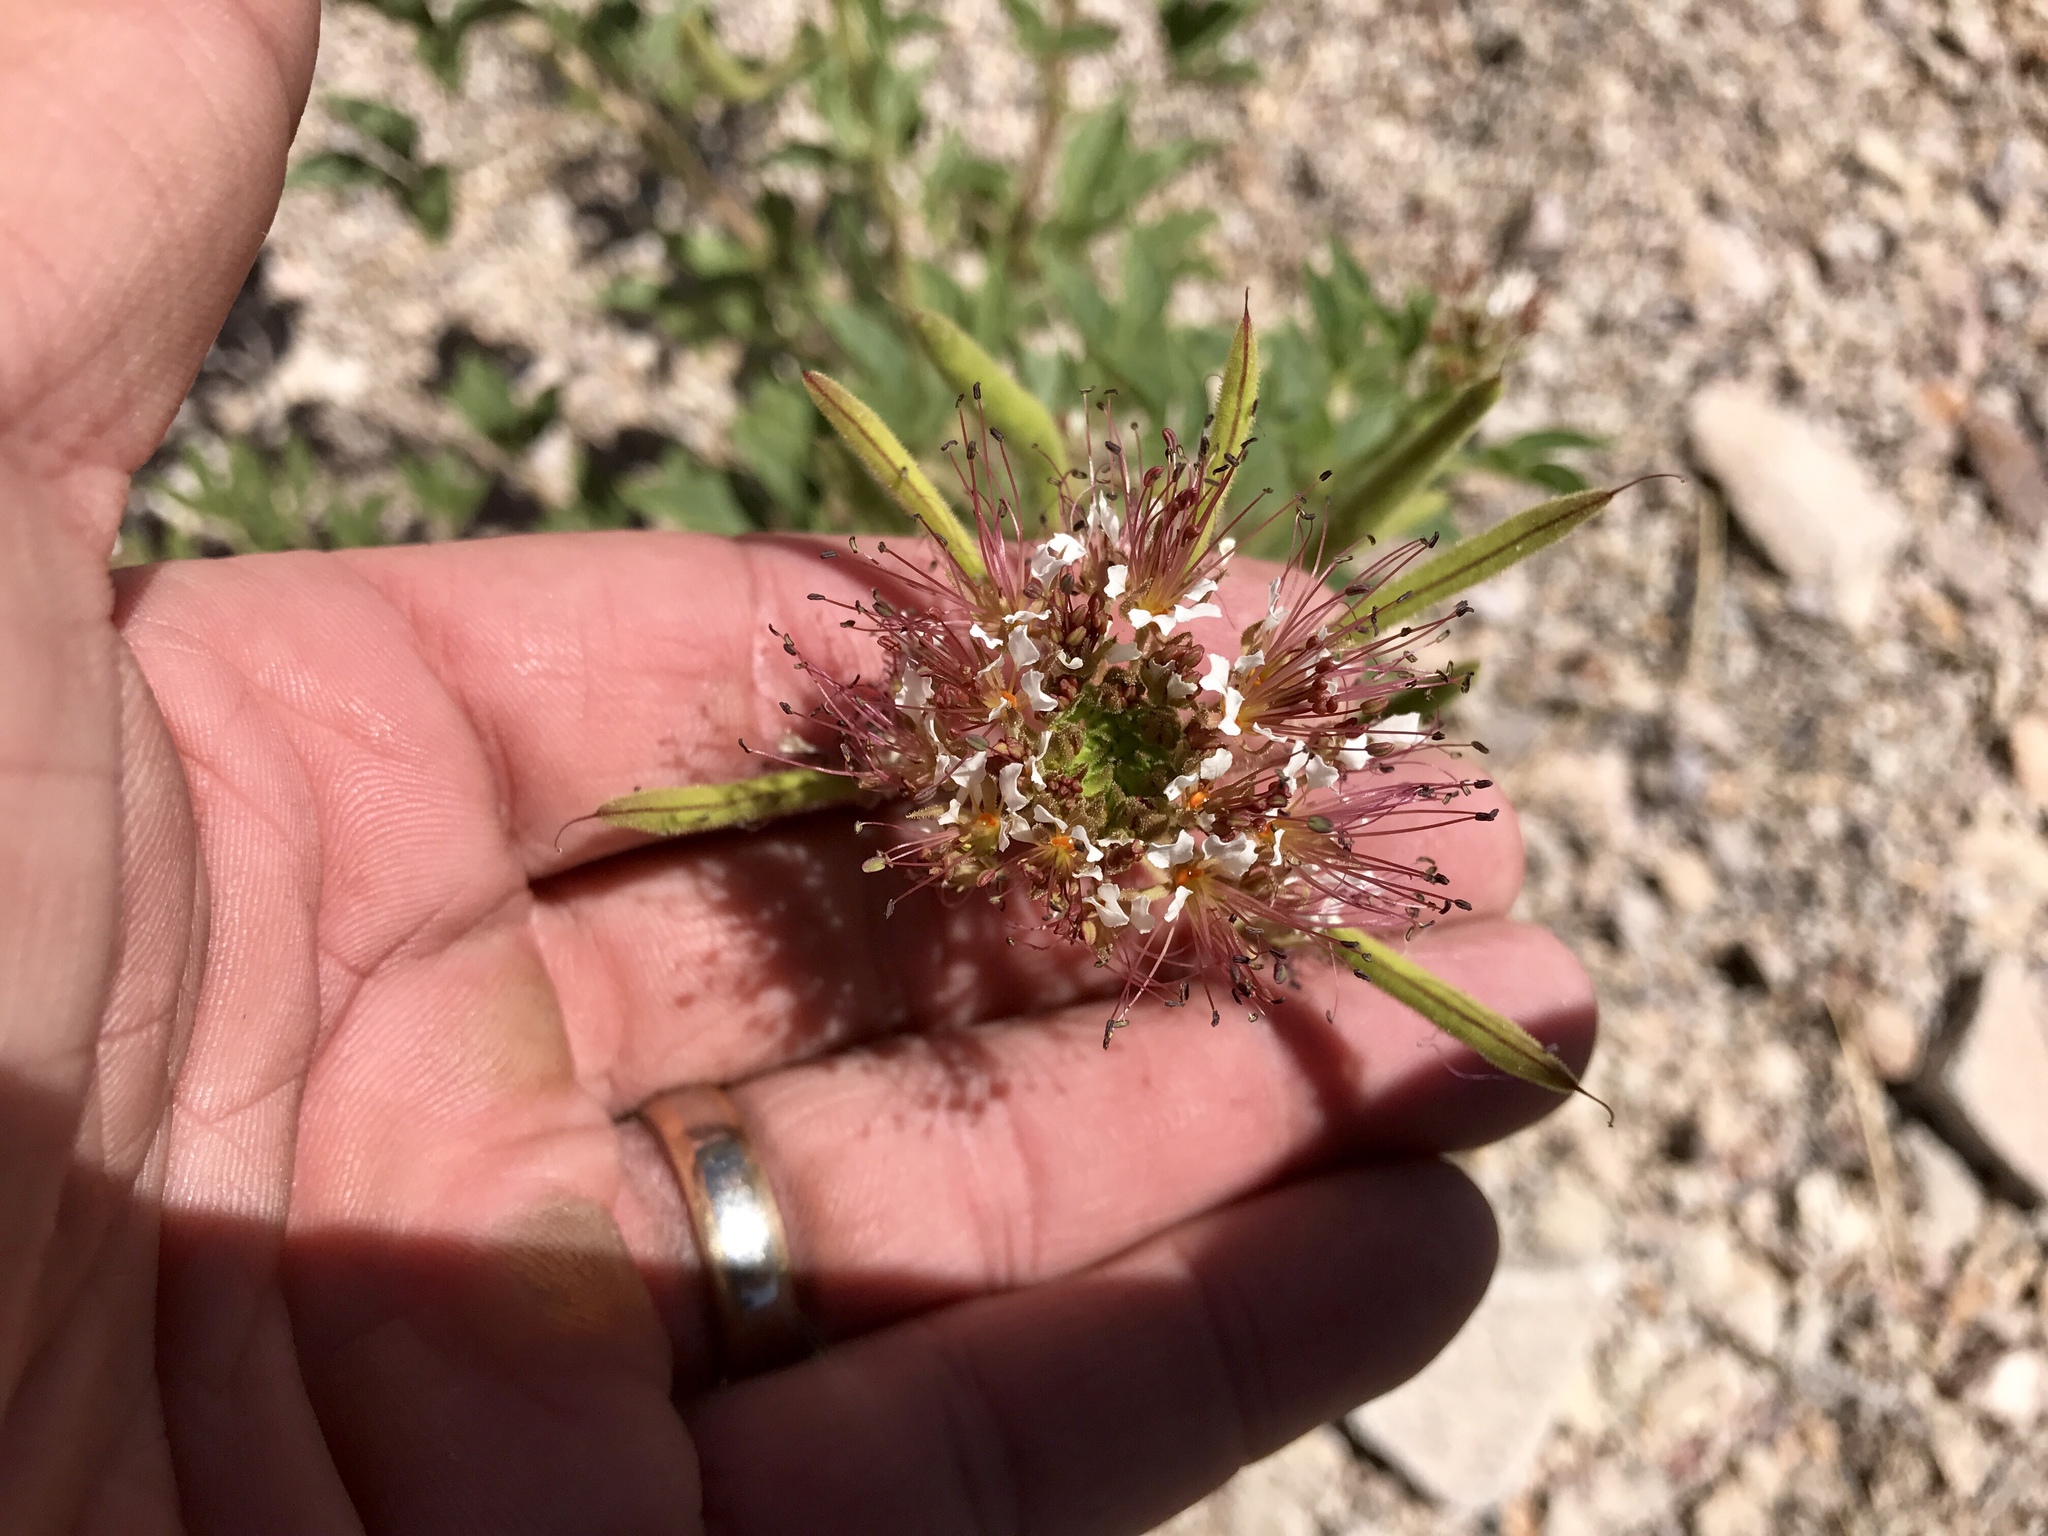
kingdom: Plantae
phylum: Tracheophyta
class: Magnoliopsida
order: Brassicales
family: Cleomaceae
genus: Polanisia
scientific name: Polanisia dodecandra
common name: Clammyweed
